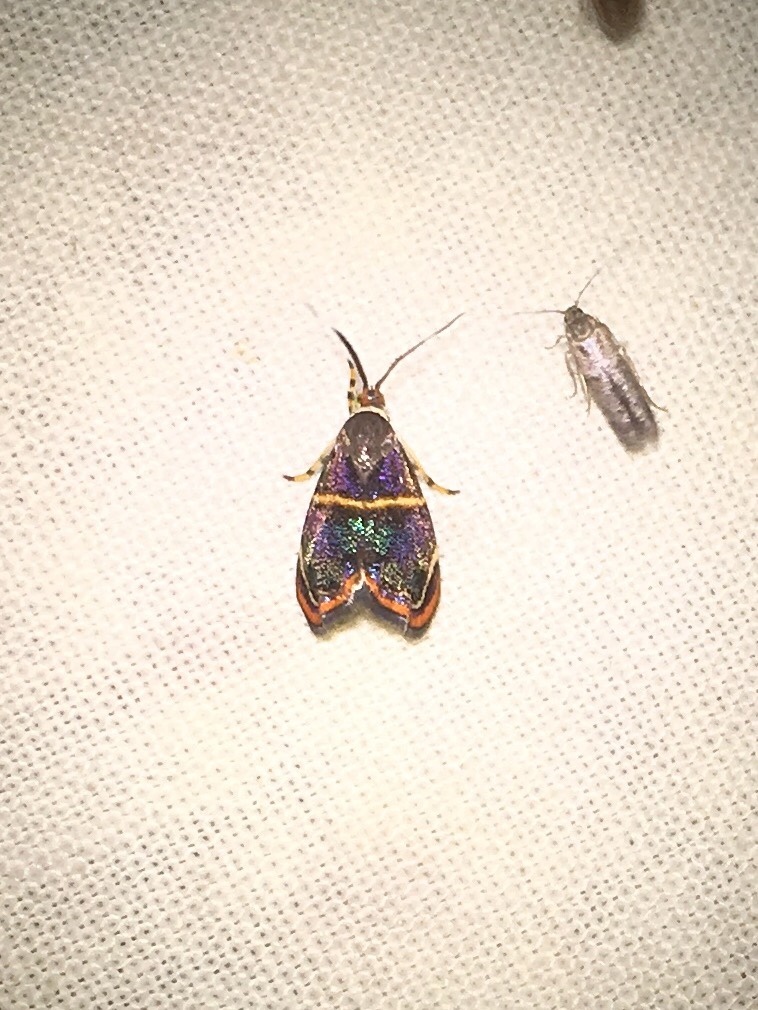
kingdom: Animalia
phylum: Arthropoda
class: Insecta
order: Lepidoptera
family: Choreutidae
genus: Hemerophila
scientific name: Hemerophila
